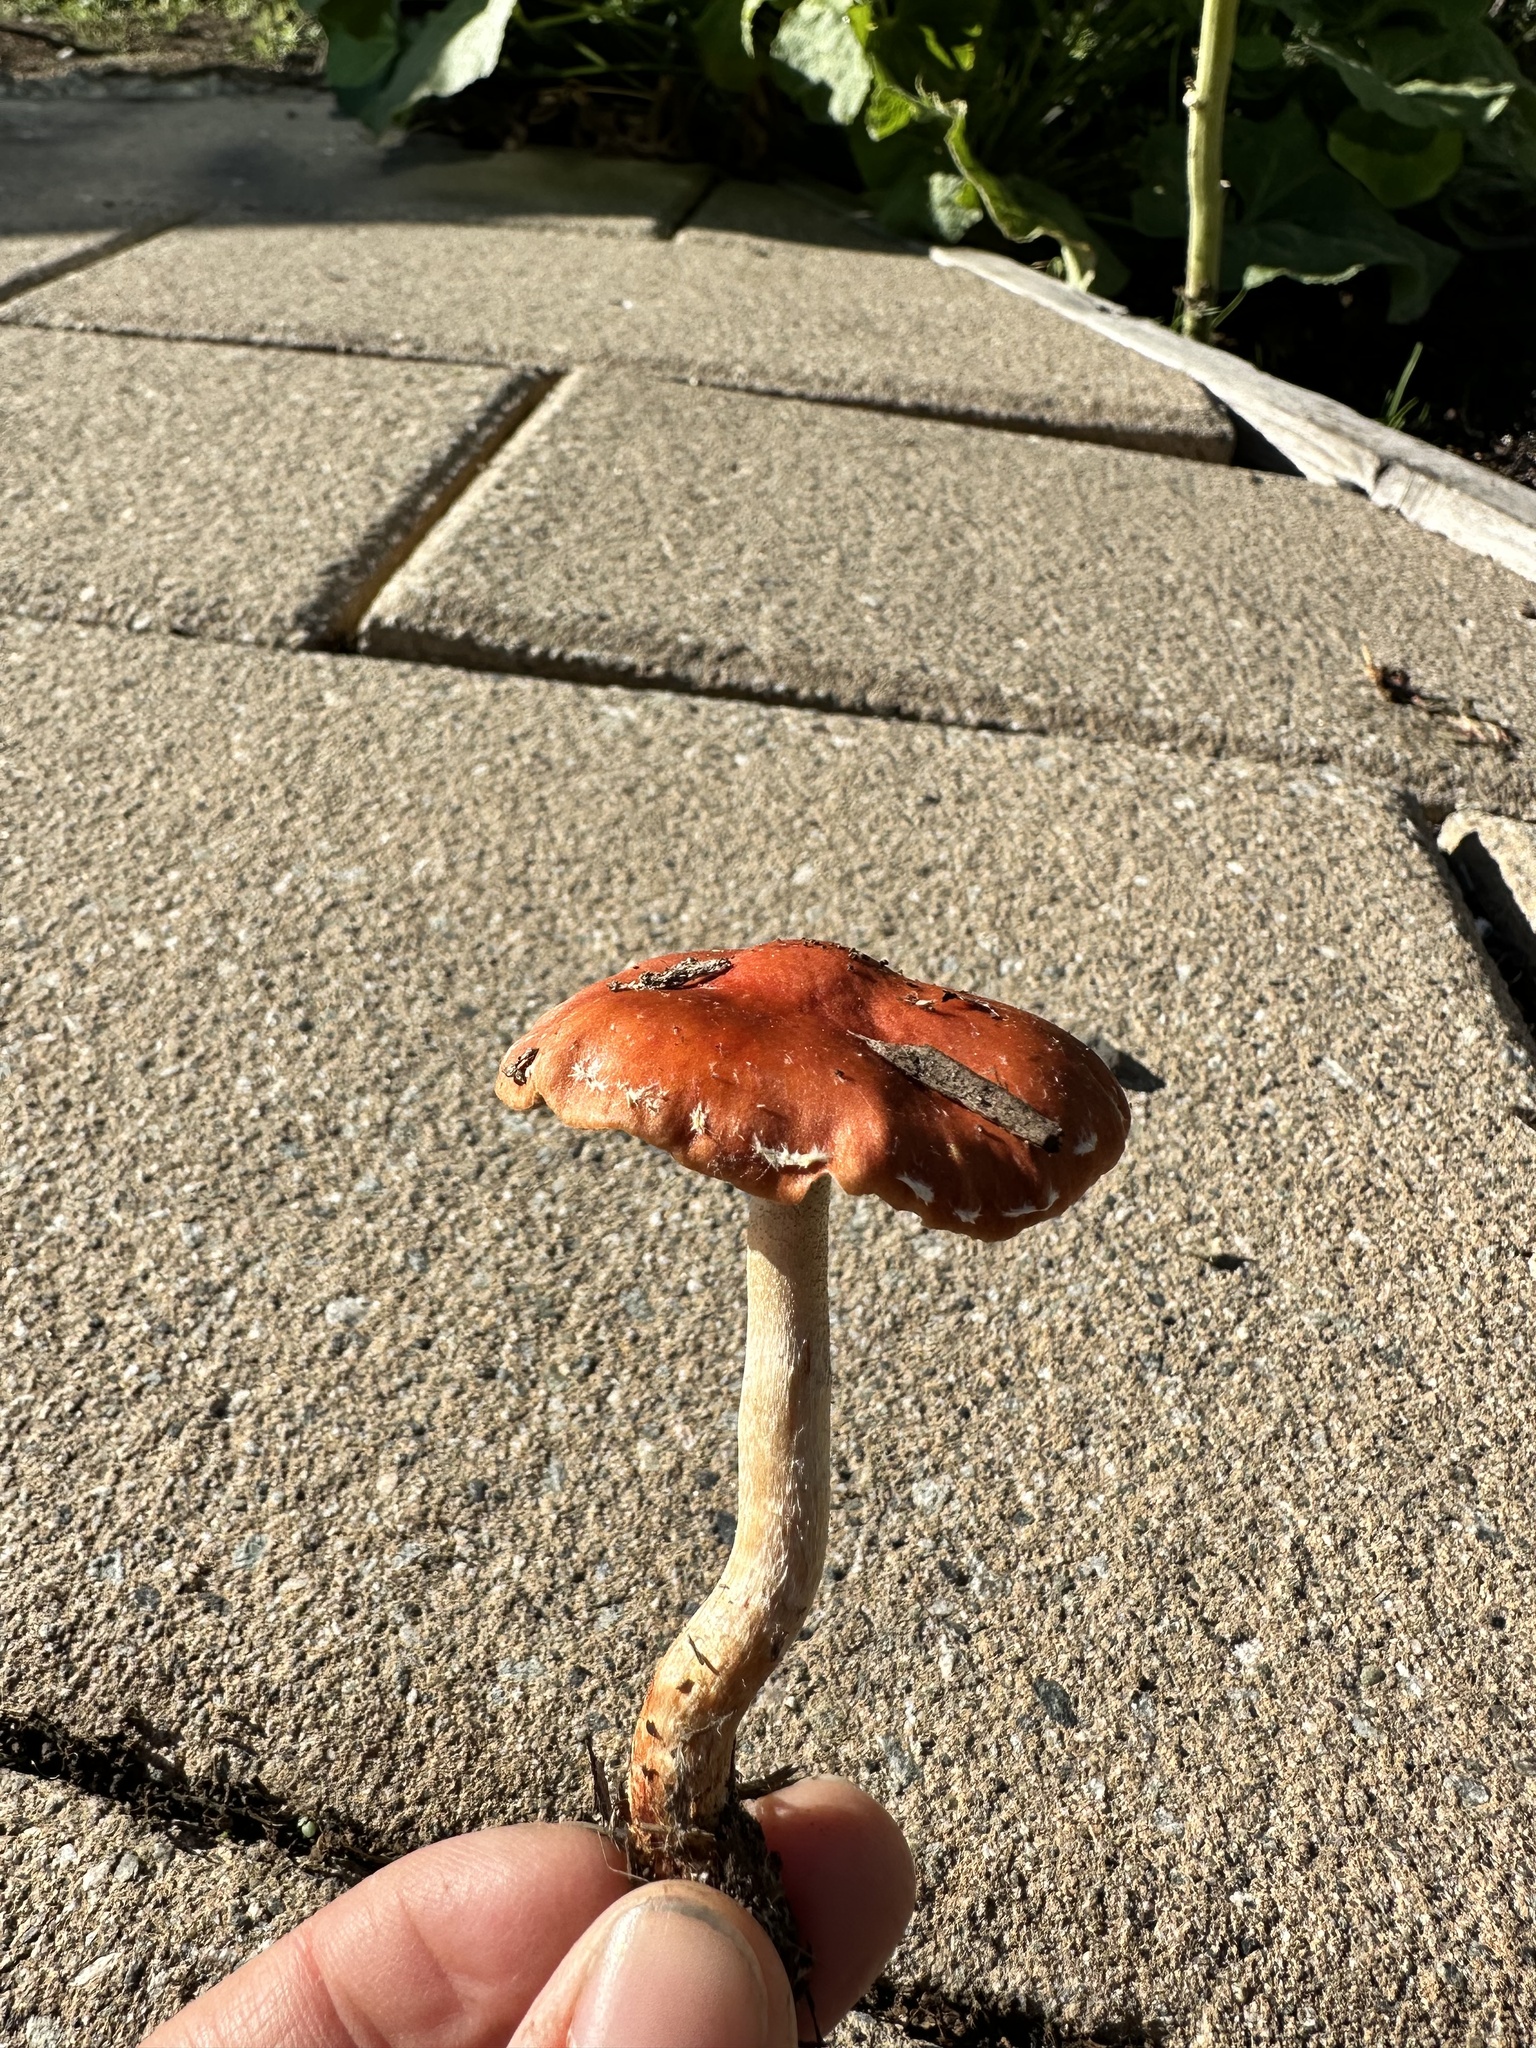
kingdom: Fungi
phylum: Basidiomycota
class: Agaricomycetes
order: Agaricales
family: Strophariaceae
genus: Leratiomyces
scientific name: Leratiomyces ceres
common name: Redlead roundhead
